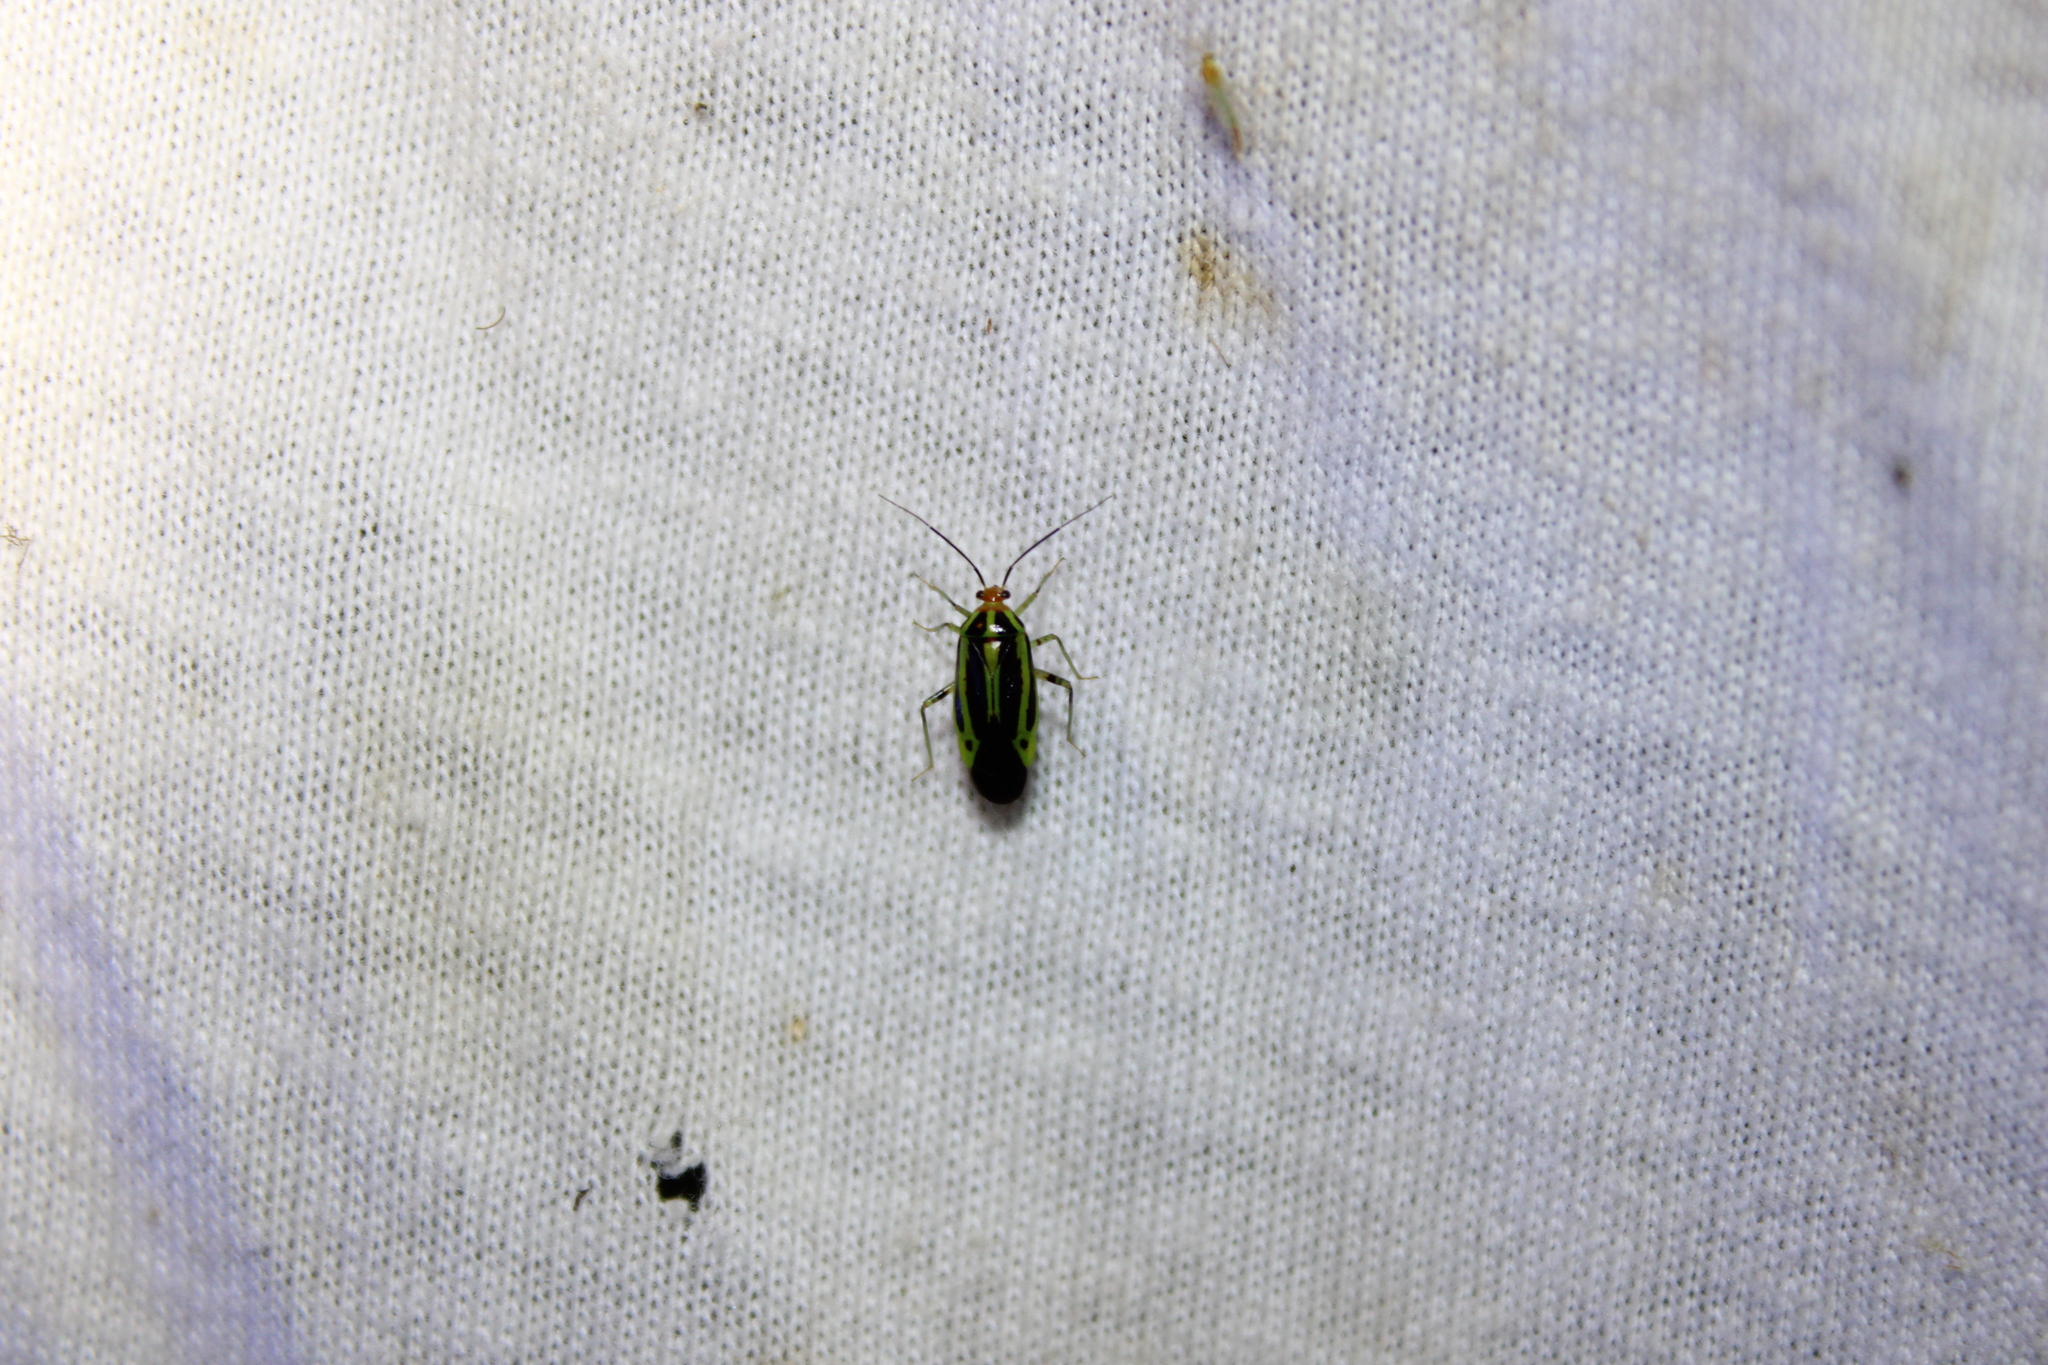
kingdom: Animalia
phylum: Arthropoda
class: Insecta
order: Hemiptera
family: Miridae
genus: Poecilocapsus
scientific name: Poecilocapsus lineatus
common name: Four-lined plant bug
